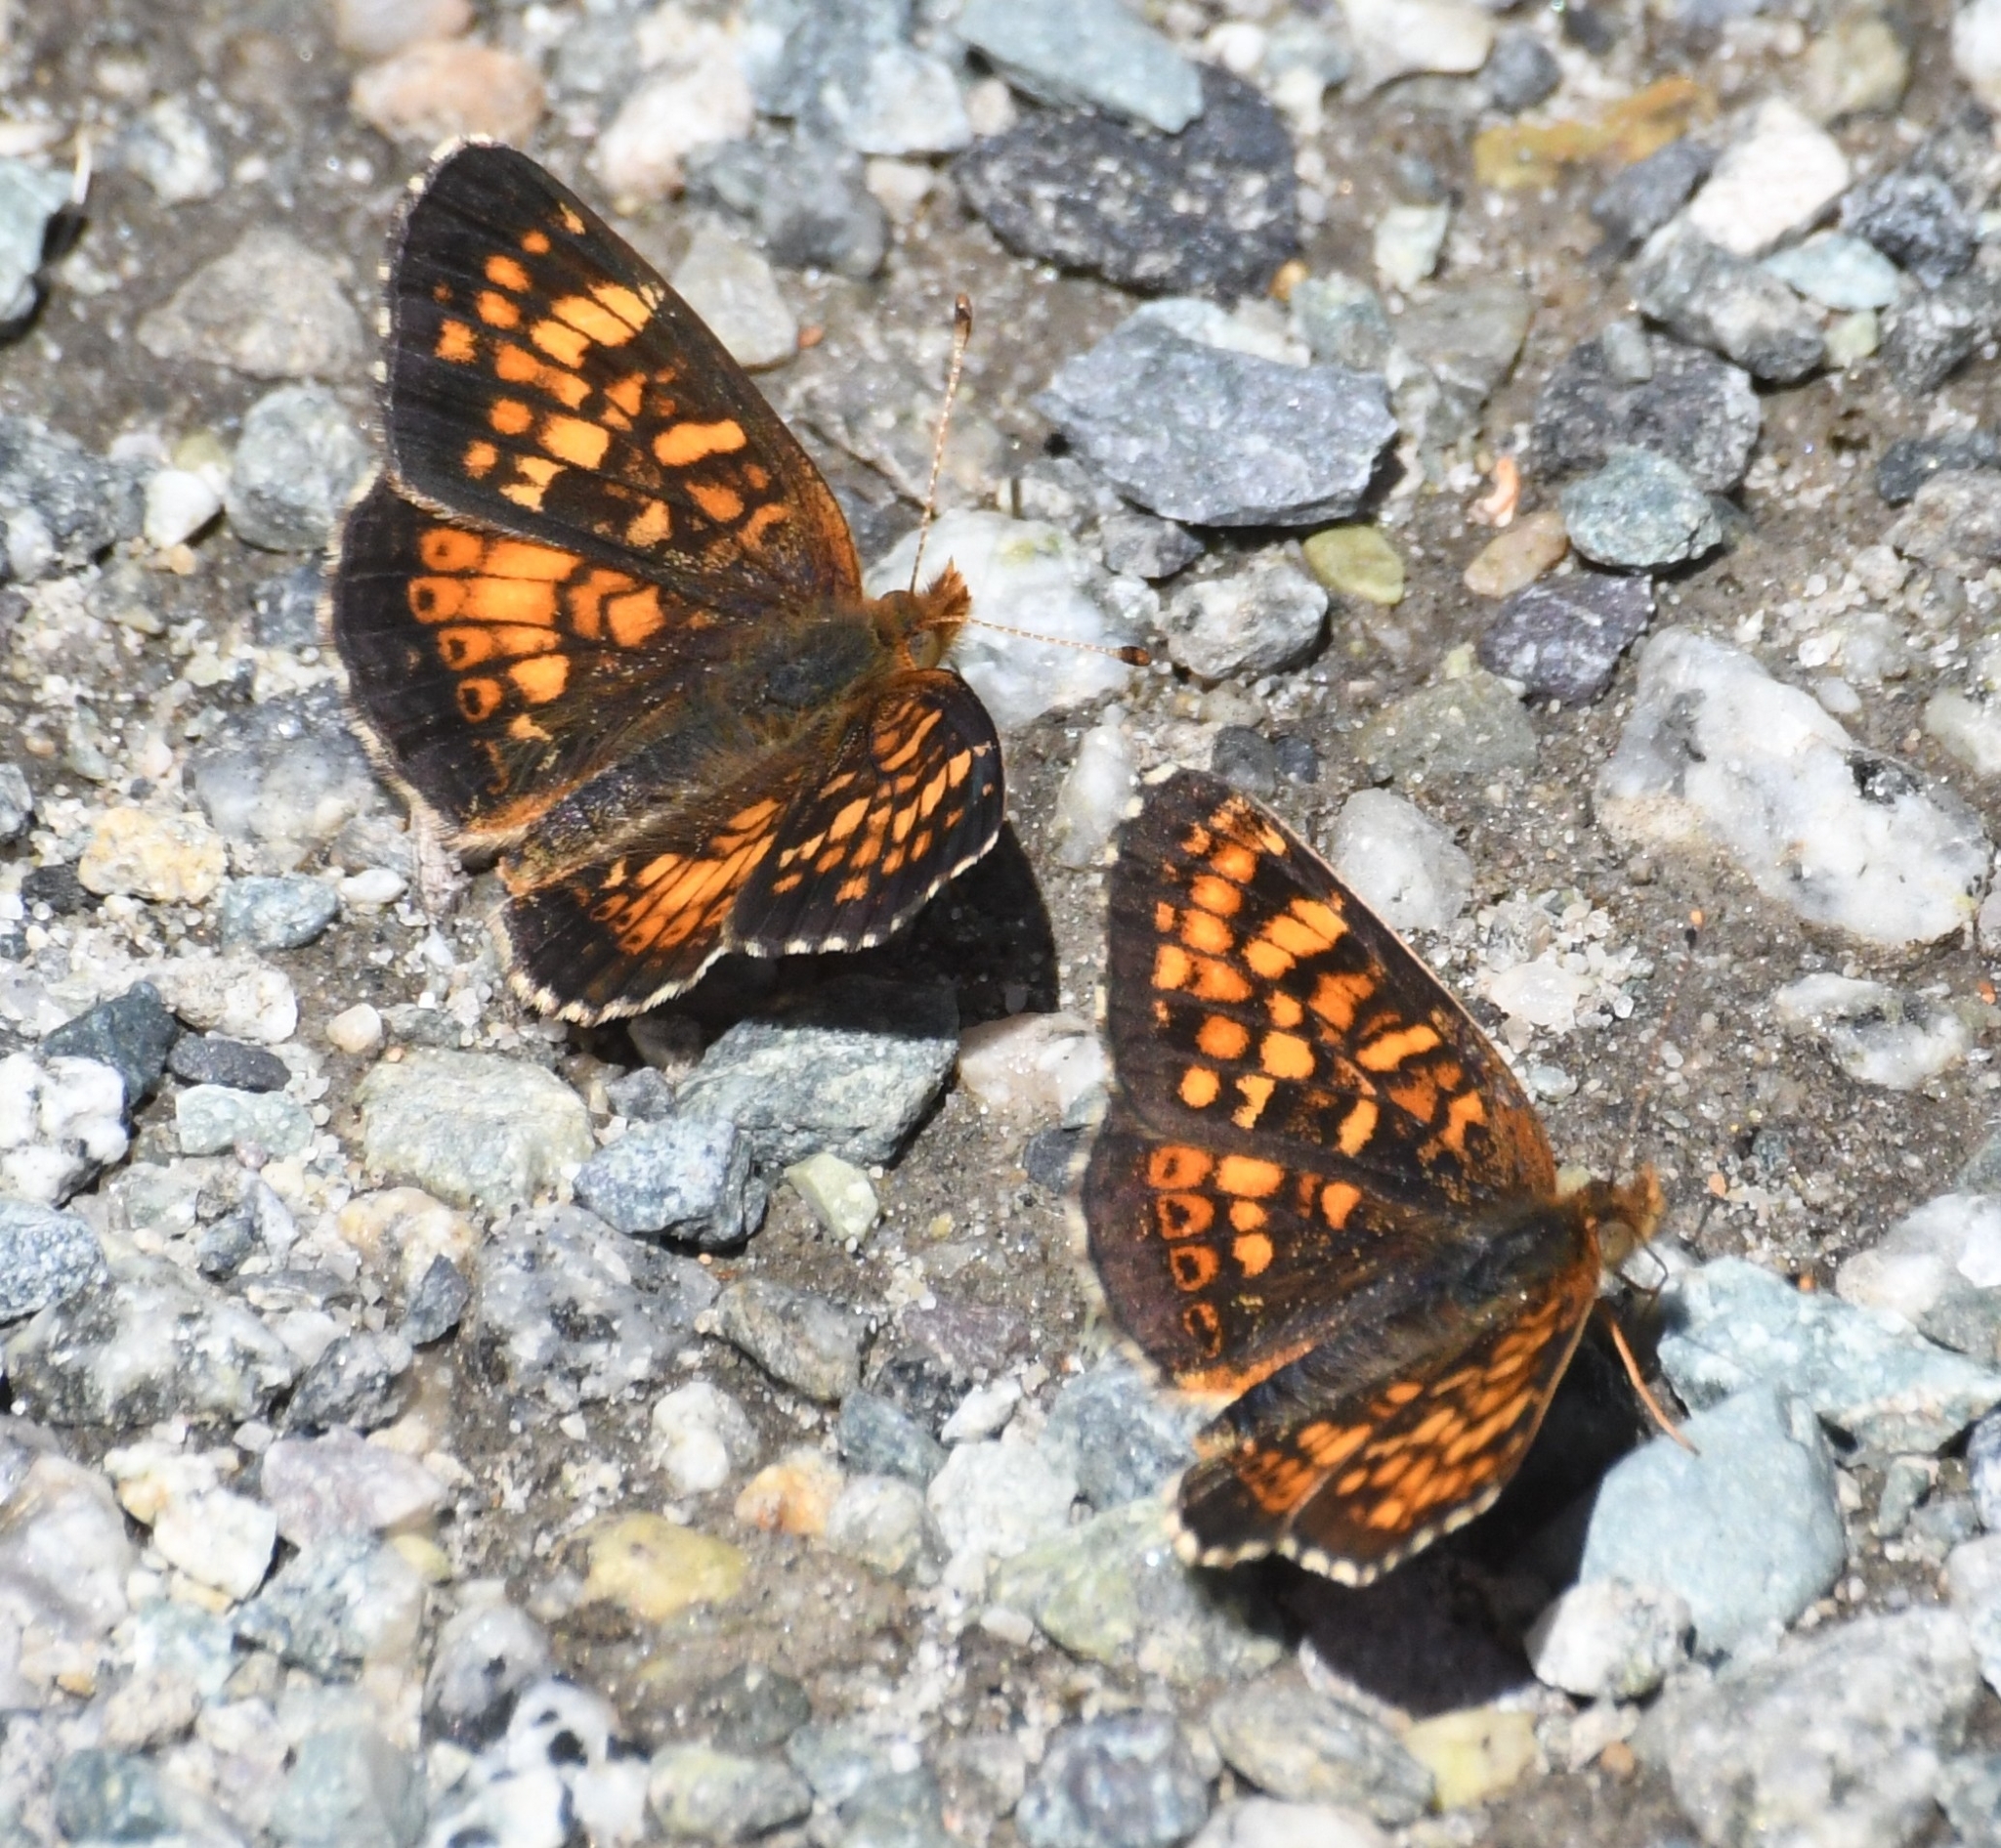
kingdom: Animalia
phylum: Arthropoda
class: Insecta
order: Lepidoptera
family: Nymphalidae
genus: Phyciodes
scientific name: Phyciodes tharos
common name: Pearl crescent
